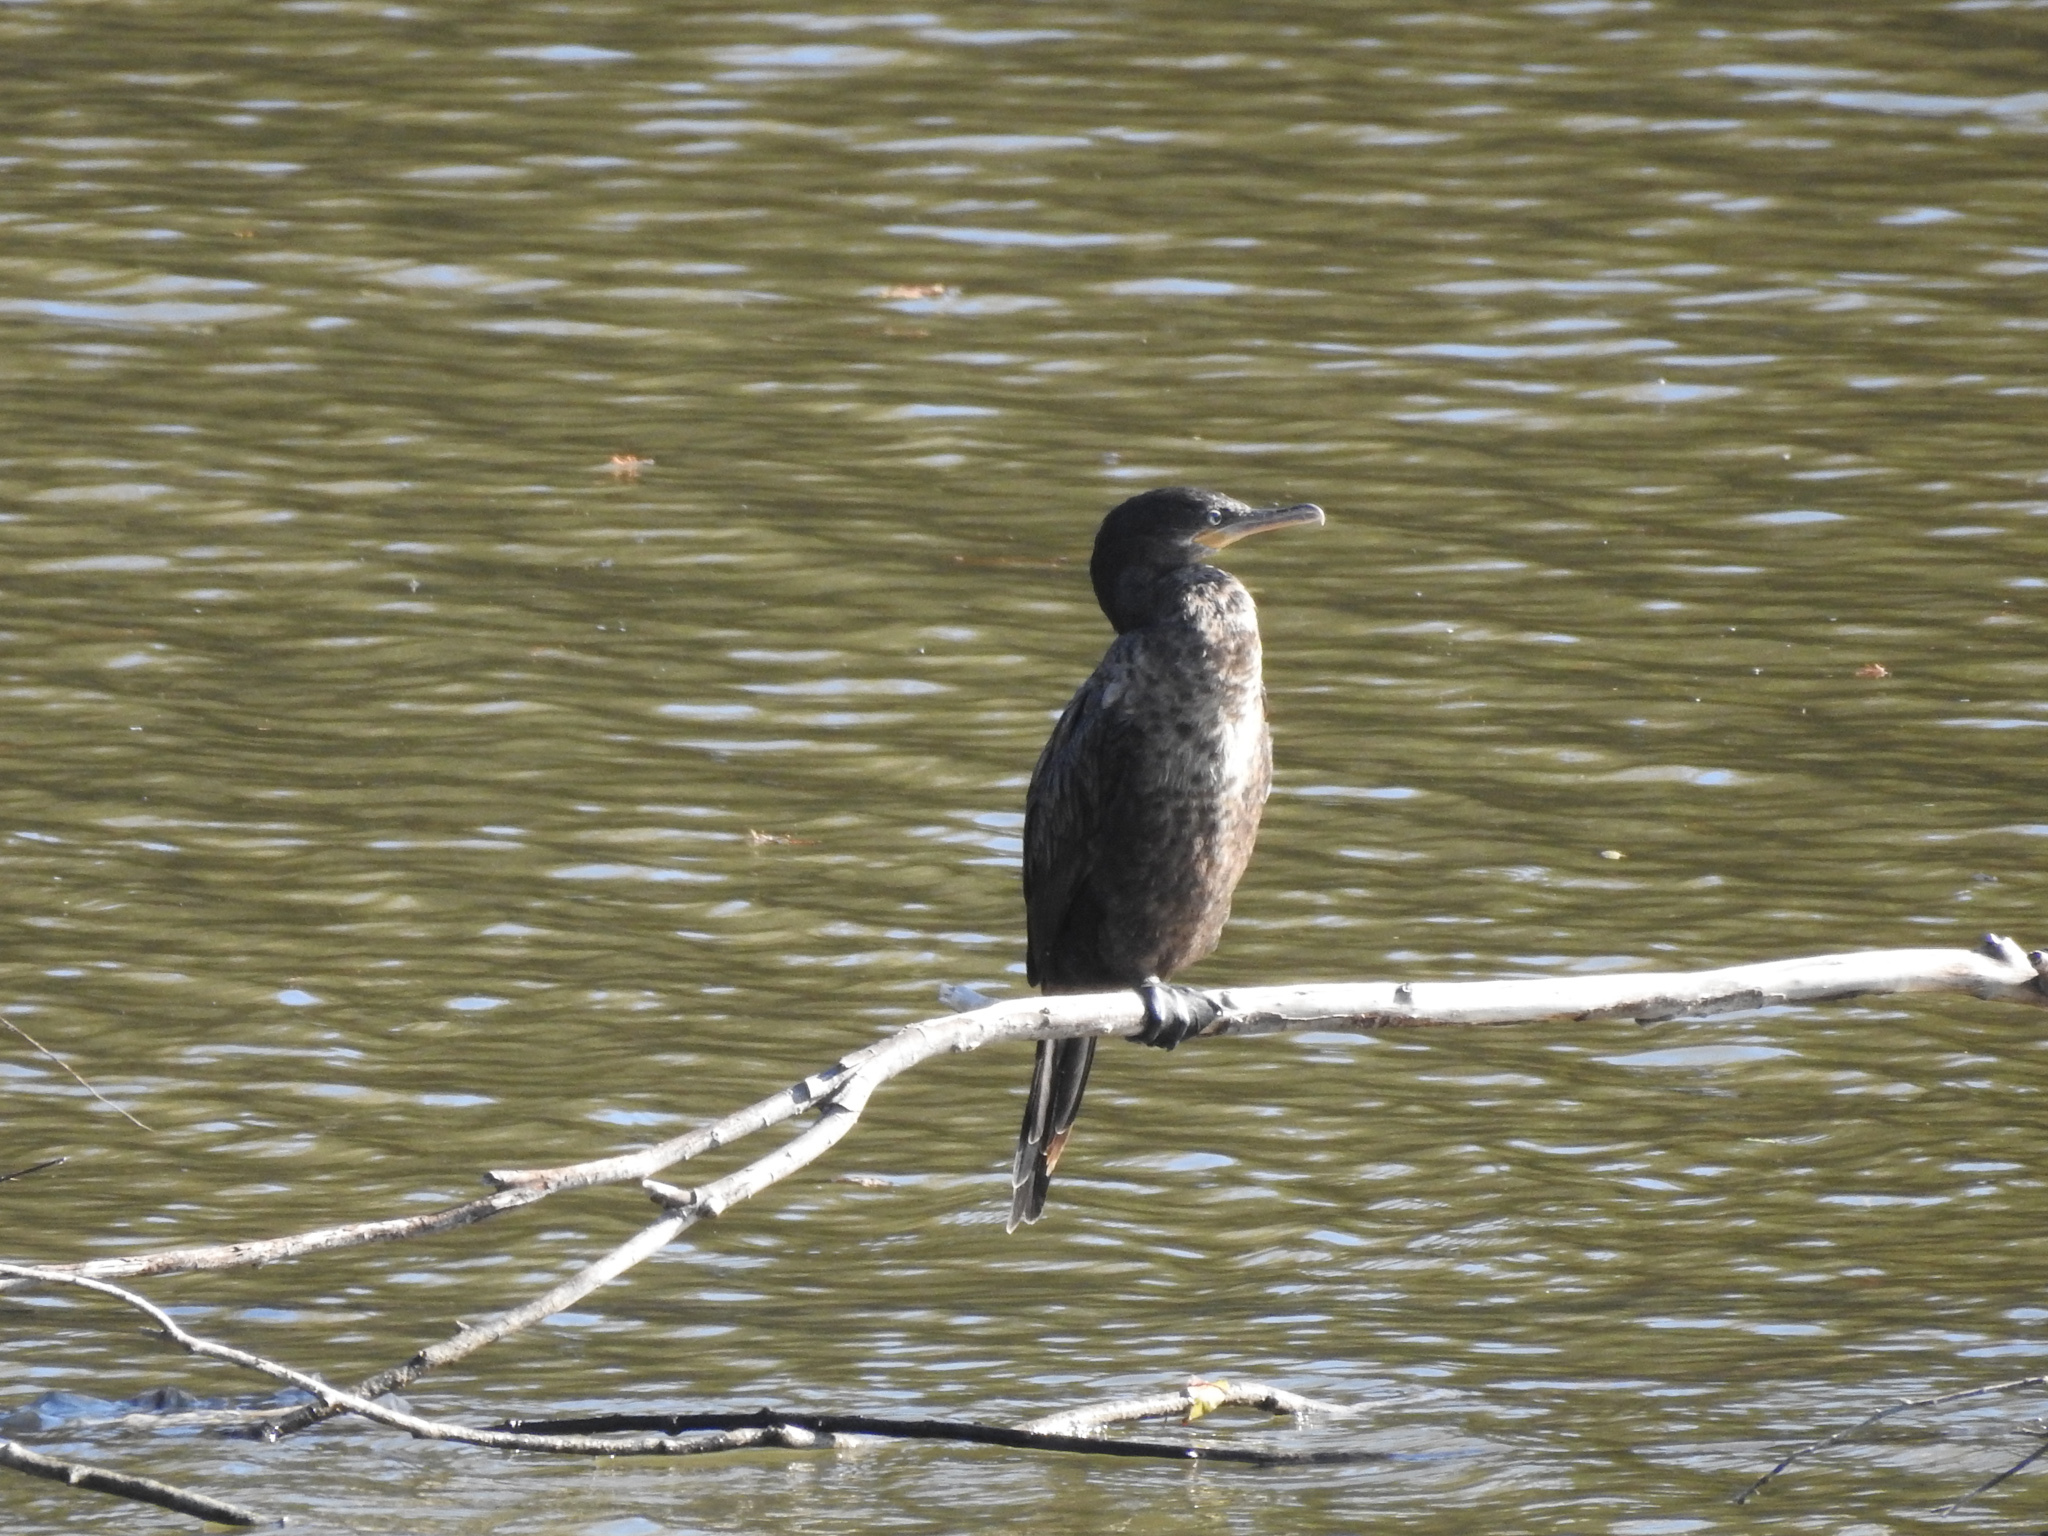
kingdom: Animalia
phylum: Chordata
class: Aves
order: Suliformes
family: Phalacrocoracidae
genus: Phalacrocorax
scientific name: Phalacrocorax brasilianus
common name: Neotropic cormorant
